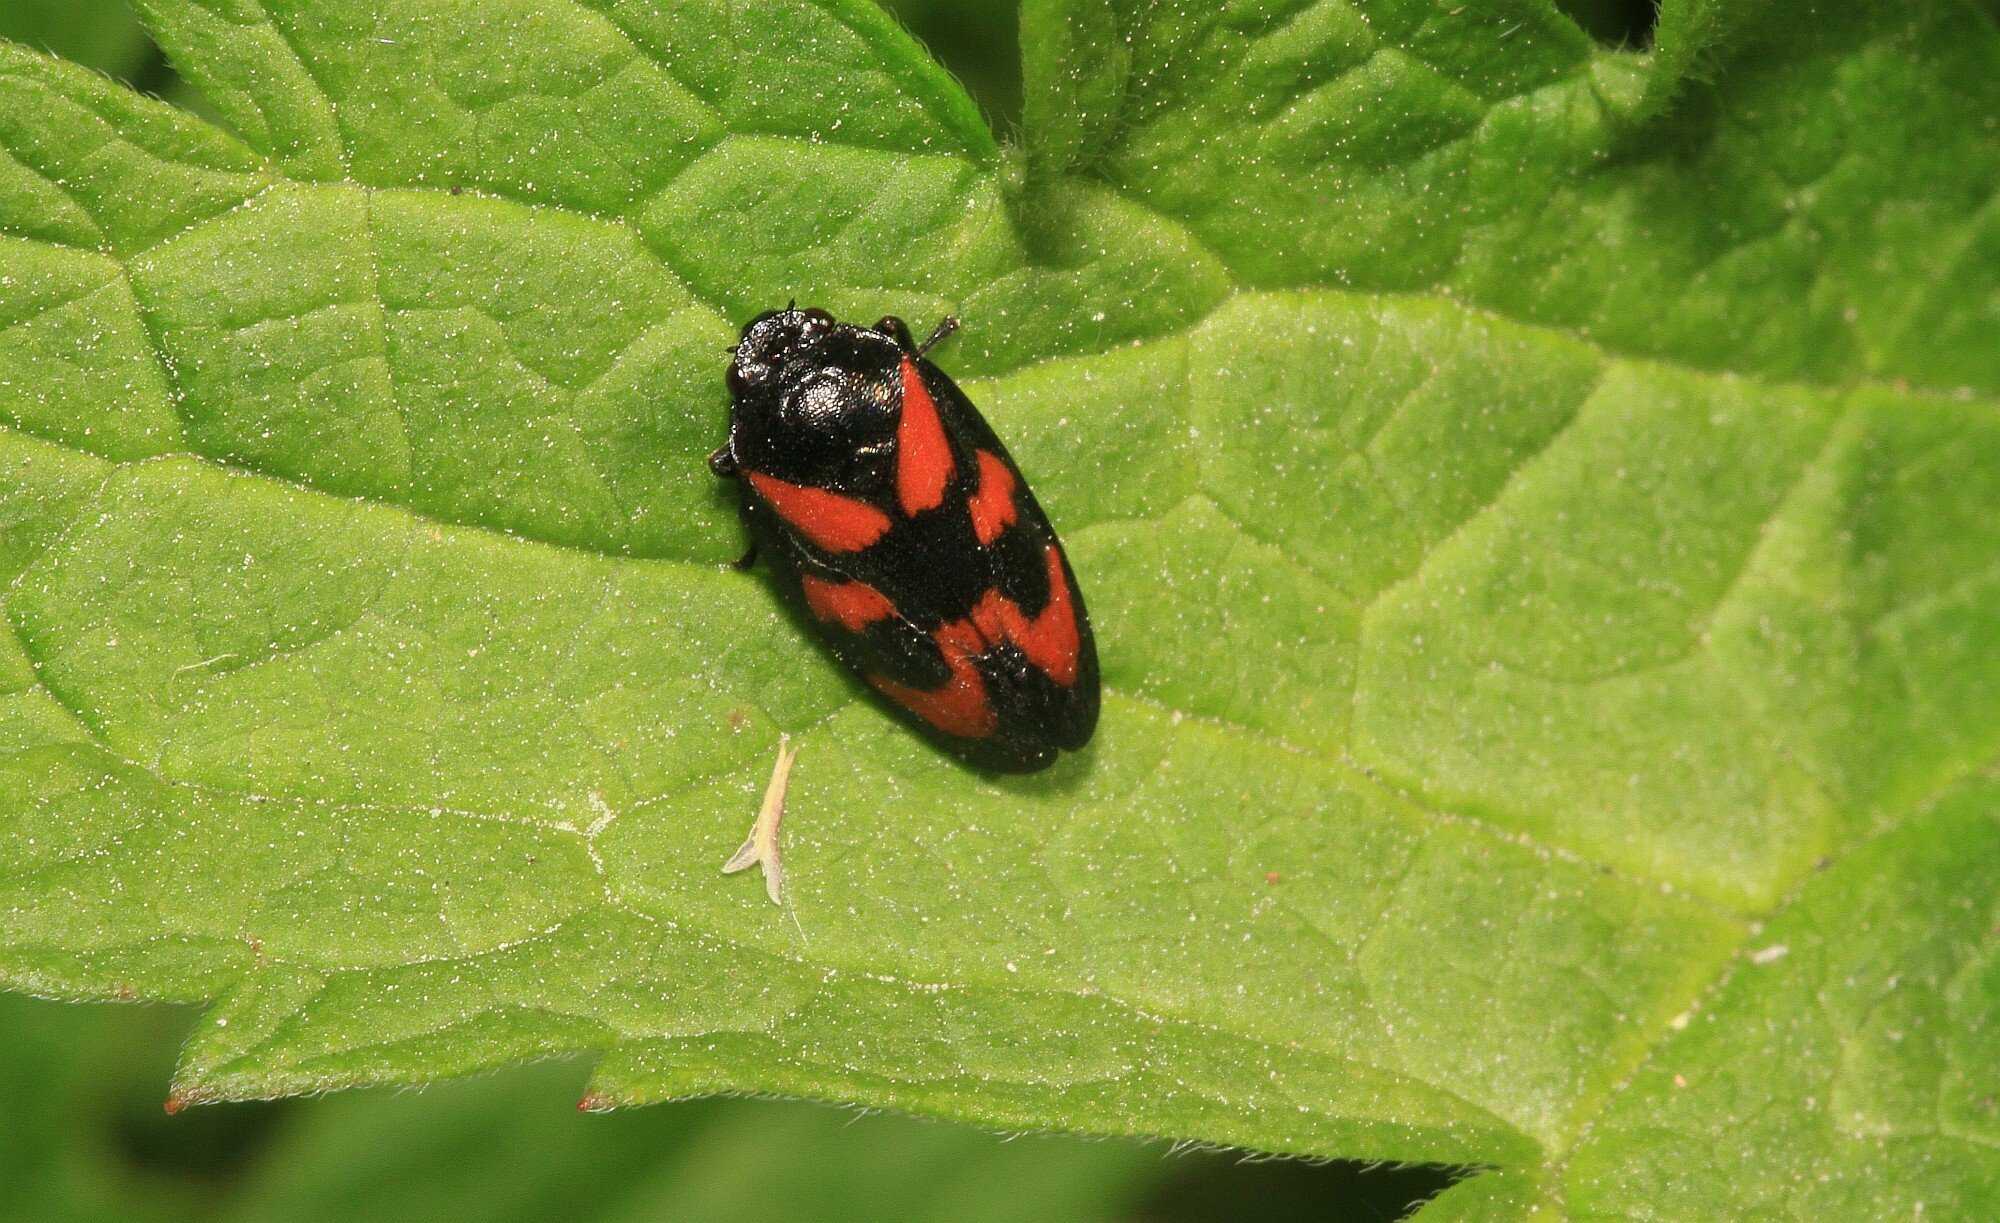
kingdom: Animalia
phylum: Arthropoda
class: Insecta
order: Hemiptera
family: Cercopidae
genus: Cercopis
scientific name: Cercopis vulnerata
